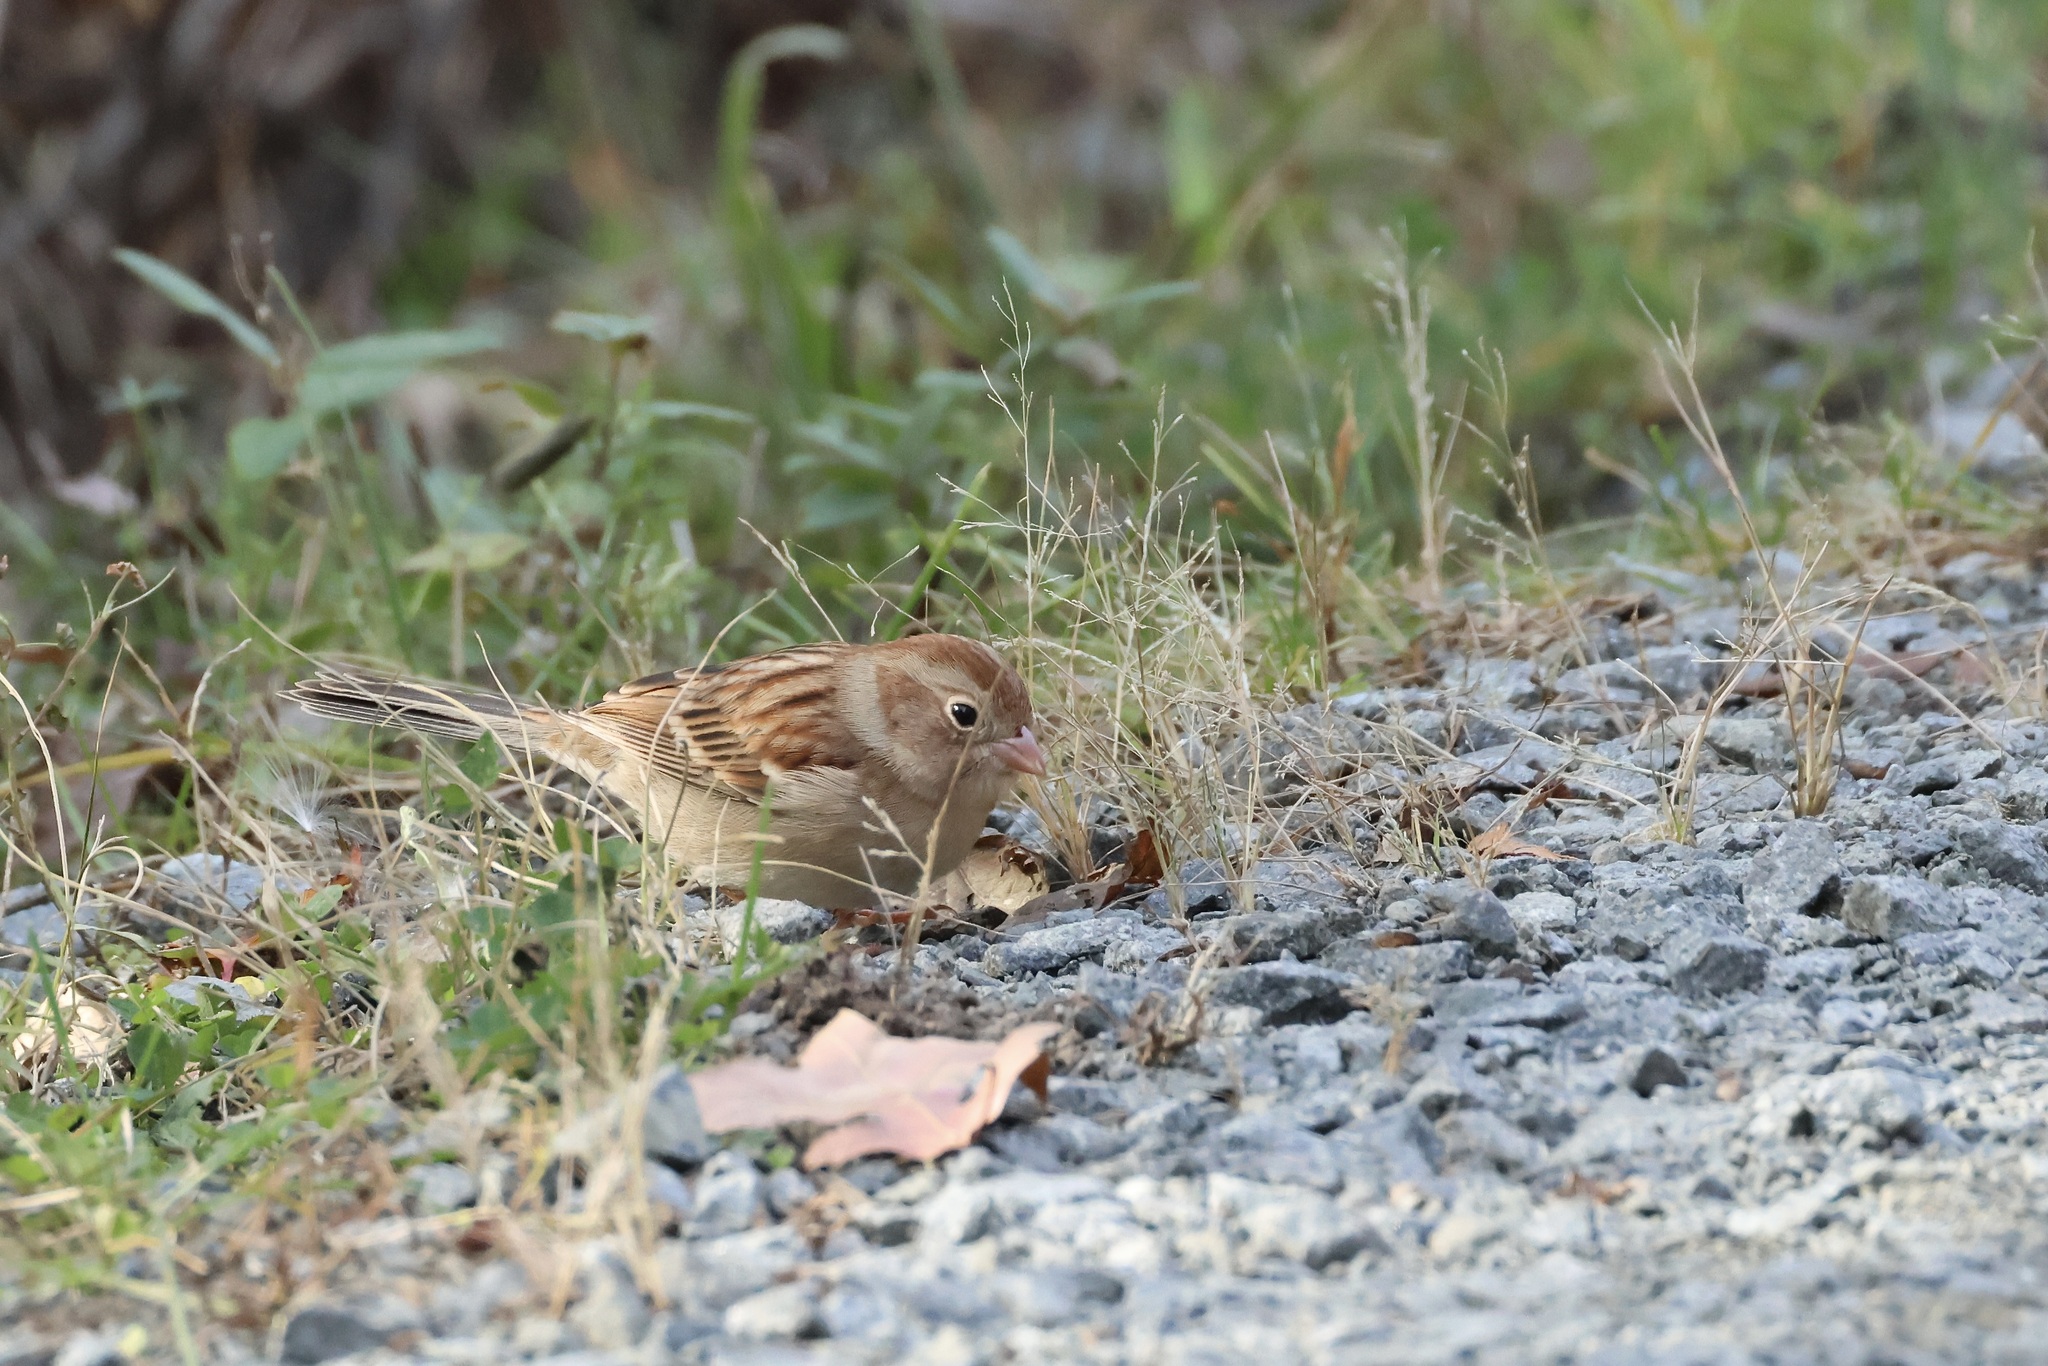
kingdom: Animalia
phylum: Chordata
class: Aves
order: Passeriformes
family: Passerellidae
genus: Spizella
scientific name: Spizella pusilla
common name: Field sparrow
